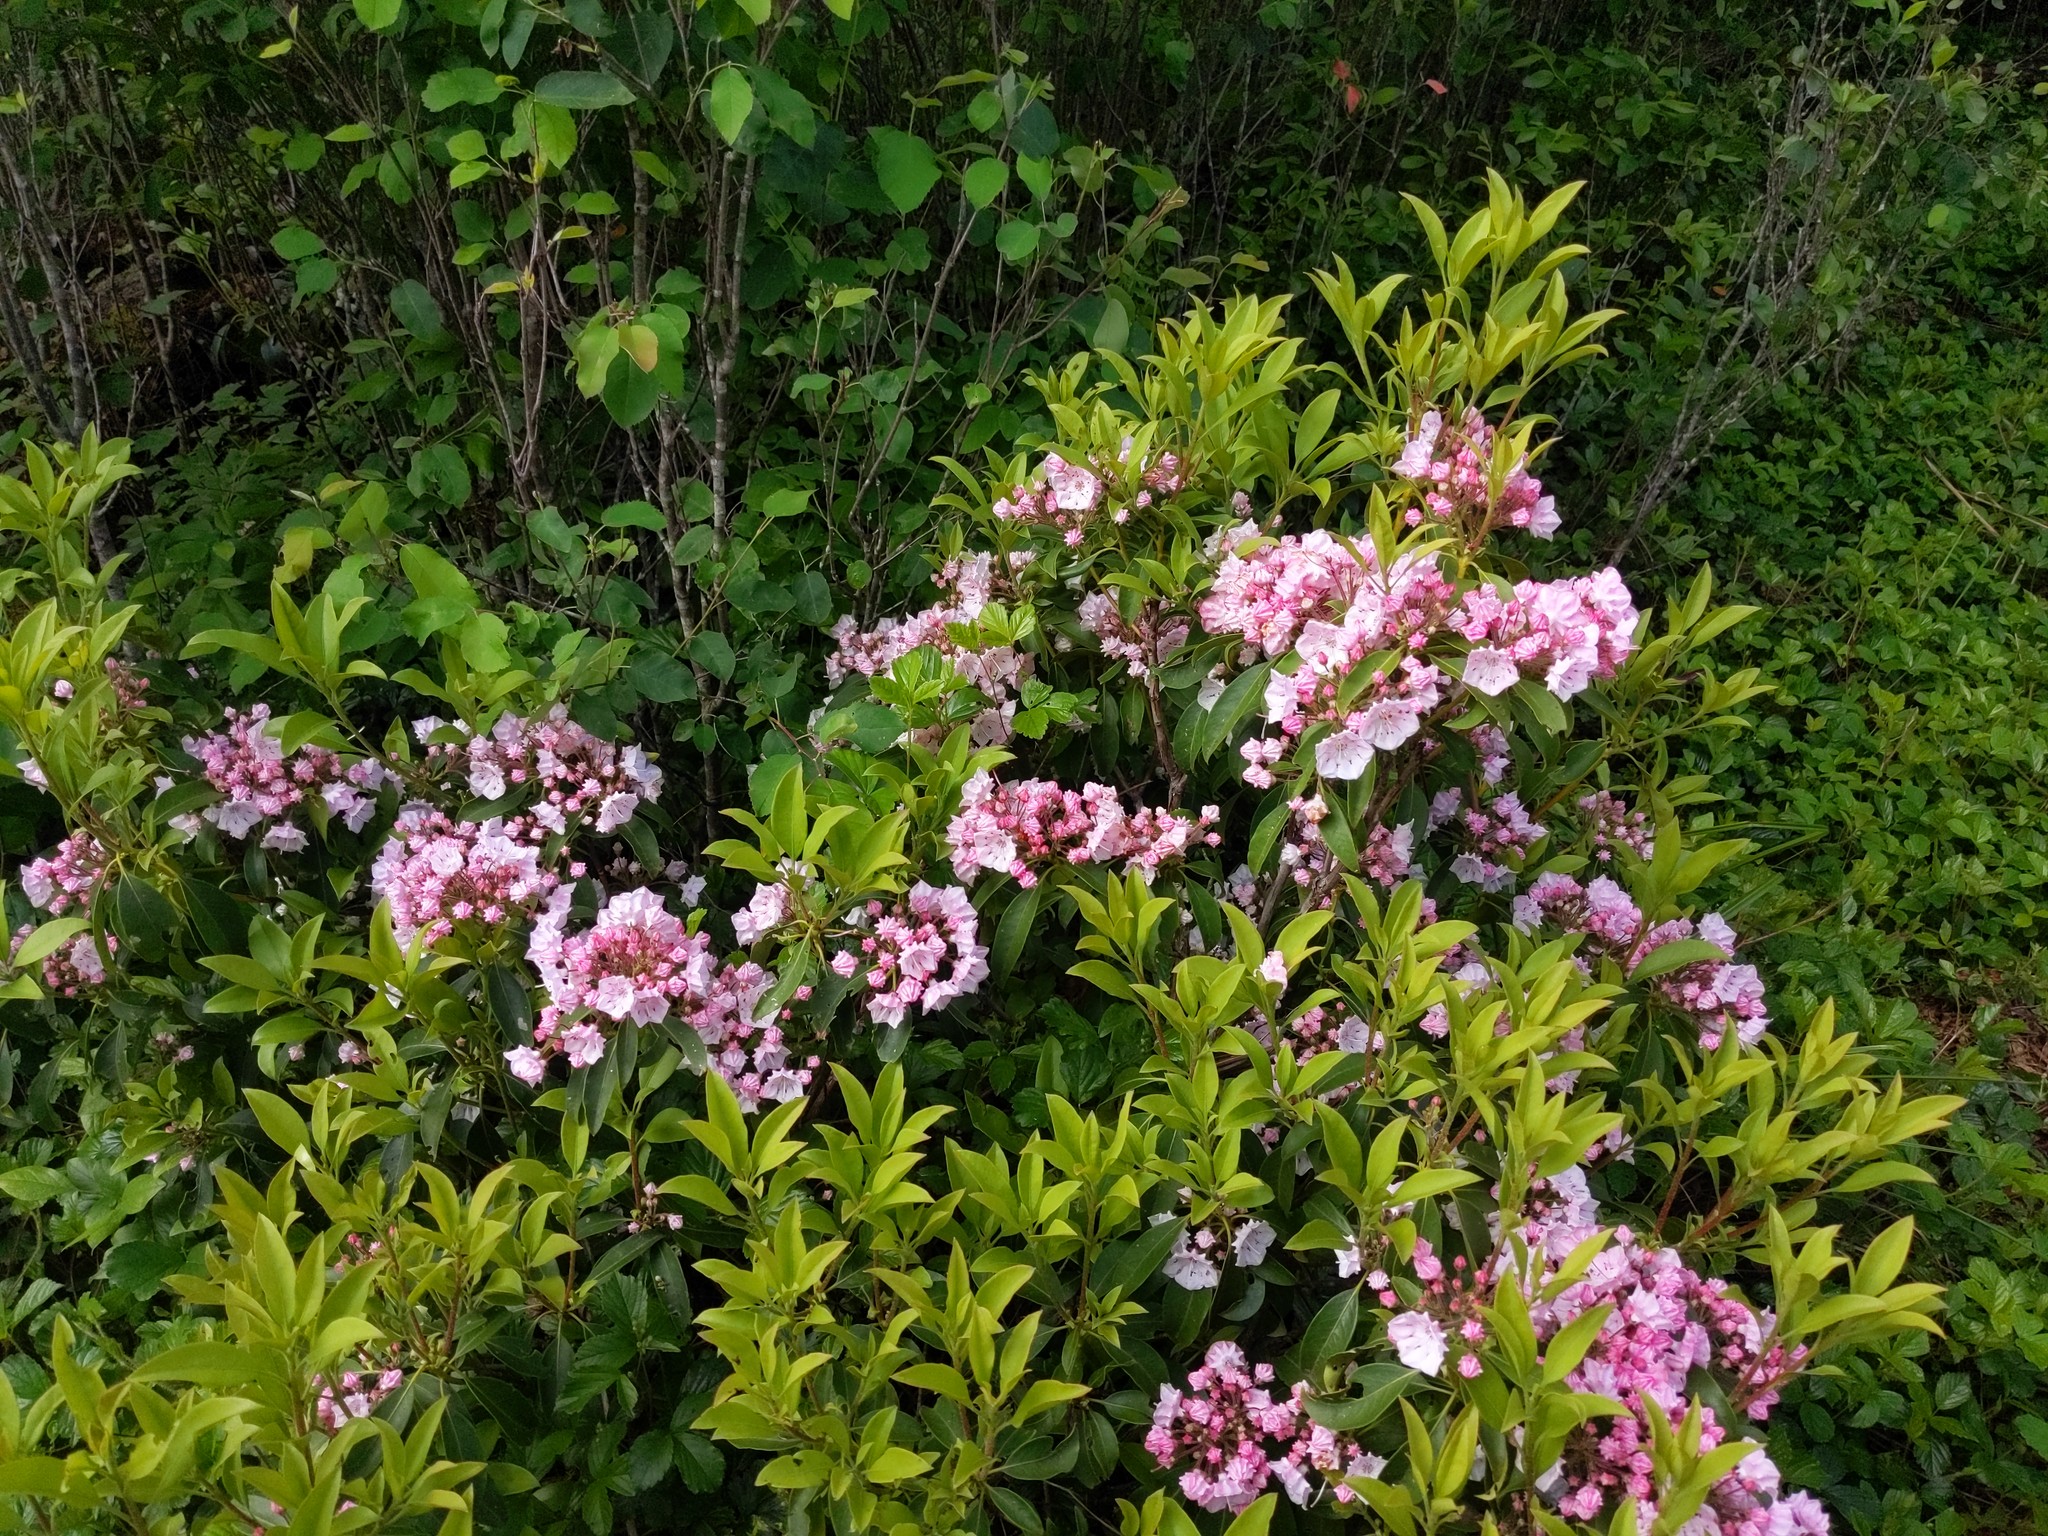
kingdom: Plantae
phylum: Tracheophyta
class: Magnoliopsida
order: Ericales
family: Ericaceae
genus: Kalmia
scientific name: Kalmia latifolia
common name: Mountain-laurel
